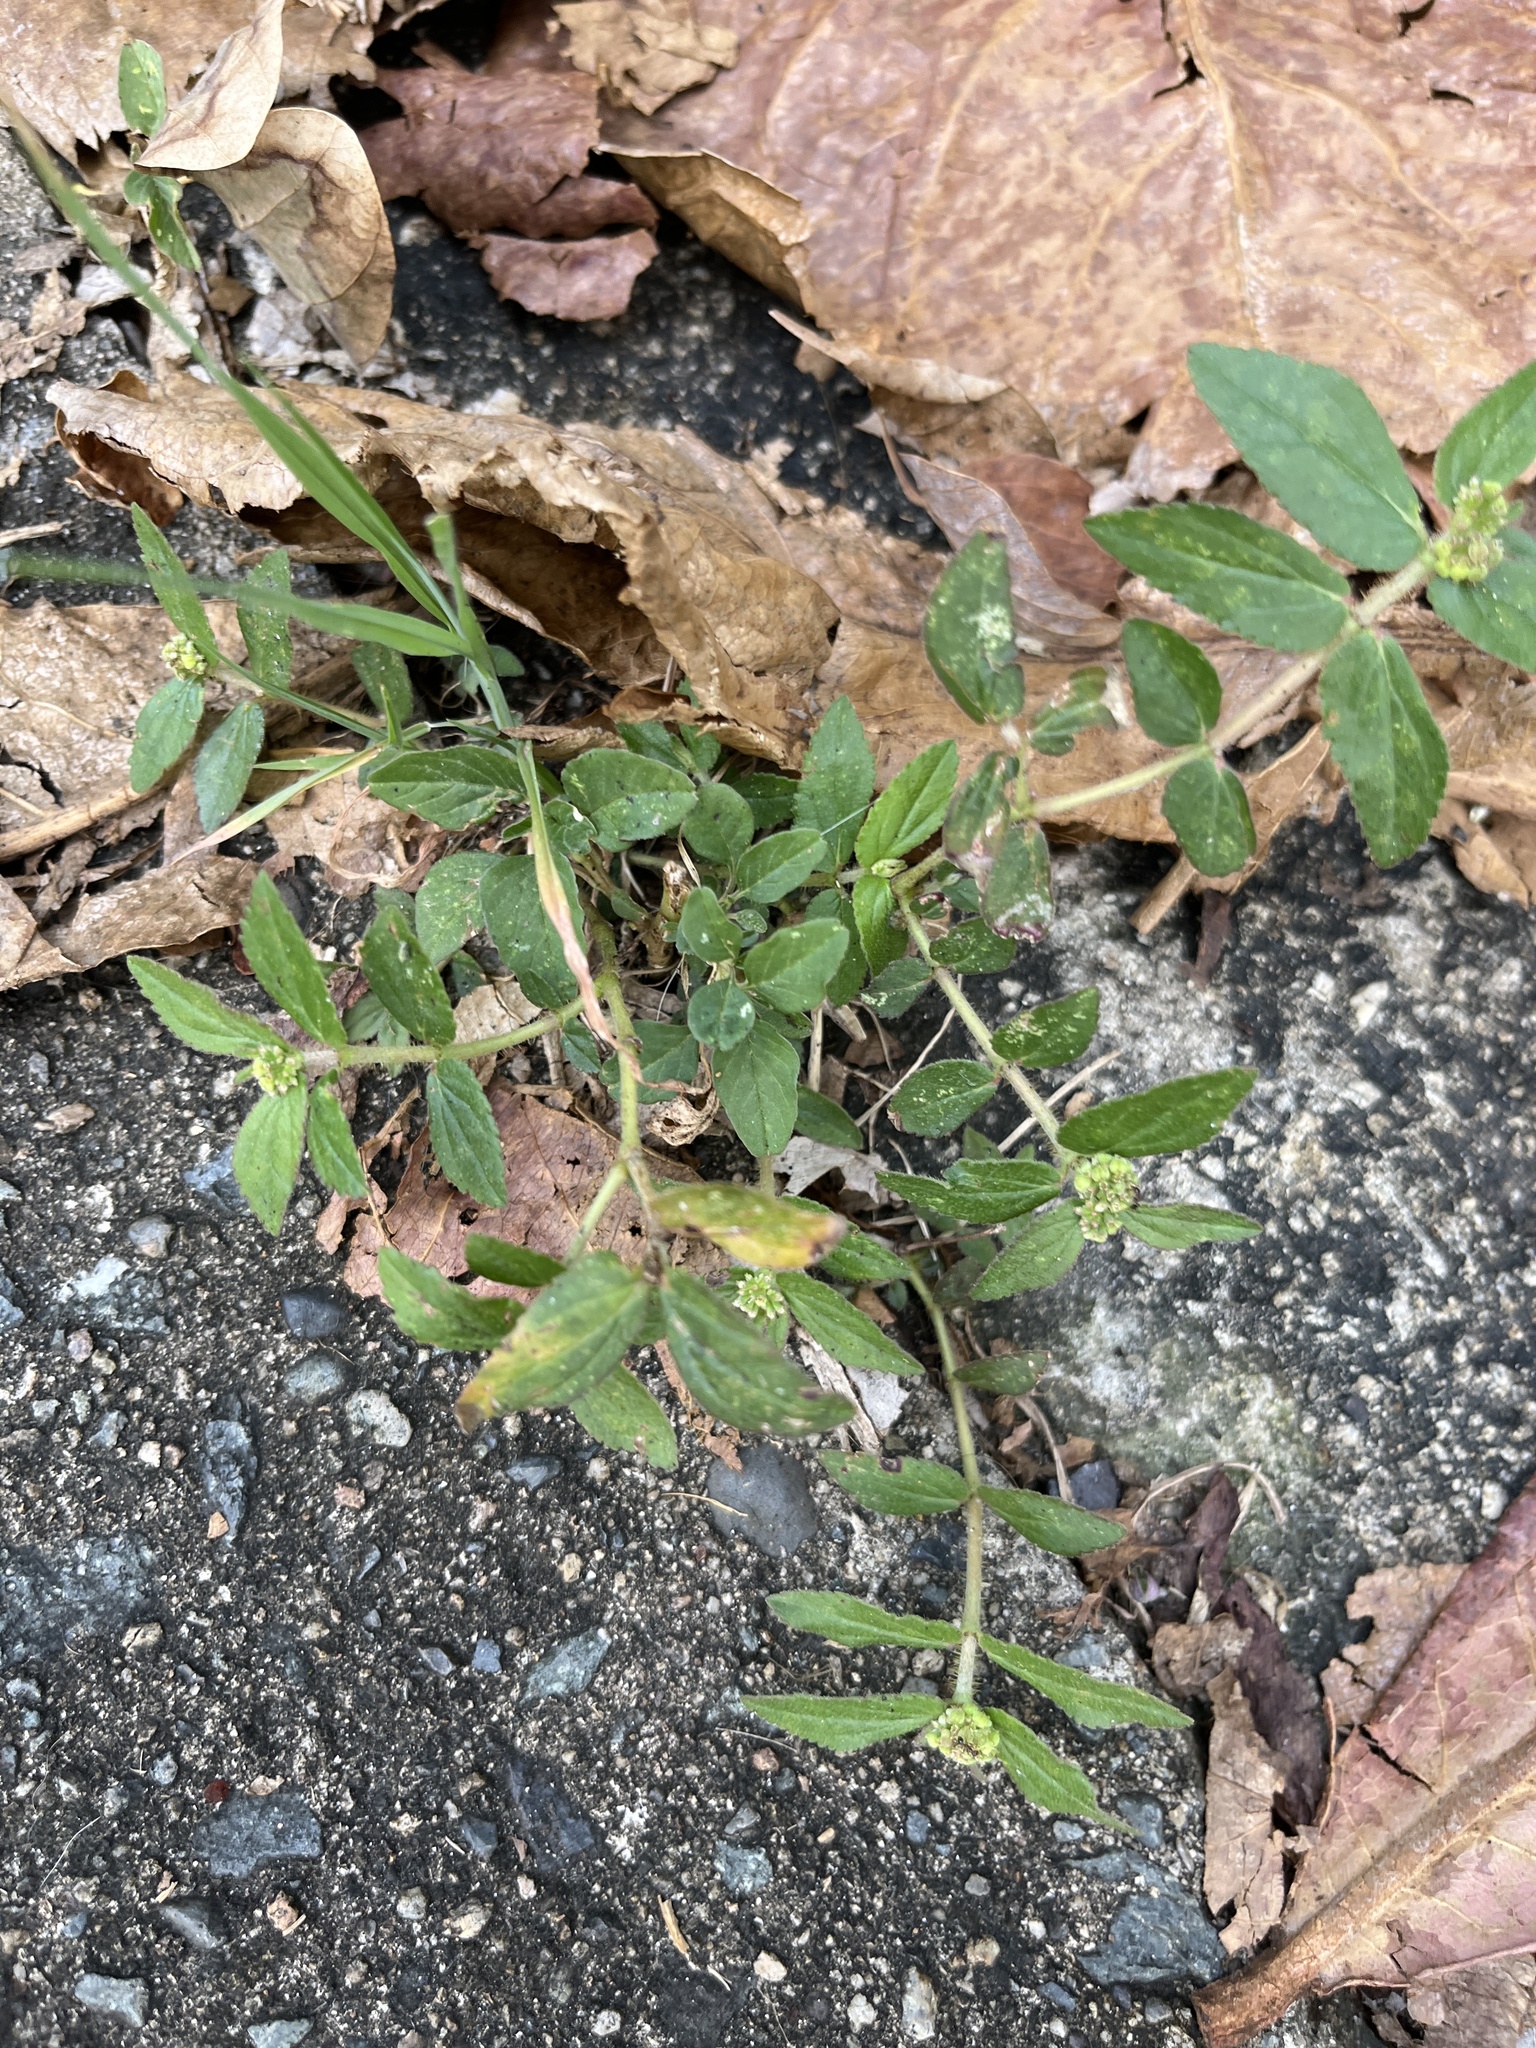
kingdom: Plantae
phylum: Tracheophyta
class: Magnoliopsida
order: Malpighiales
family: Euphorbiaceae
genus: Euphorbia
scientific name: Euphorbia hirta
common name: Pillpod sandmat
